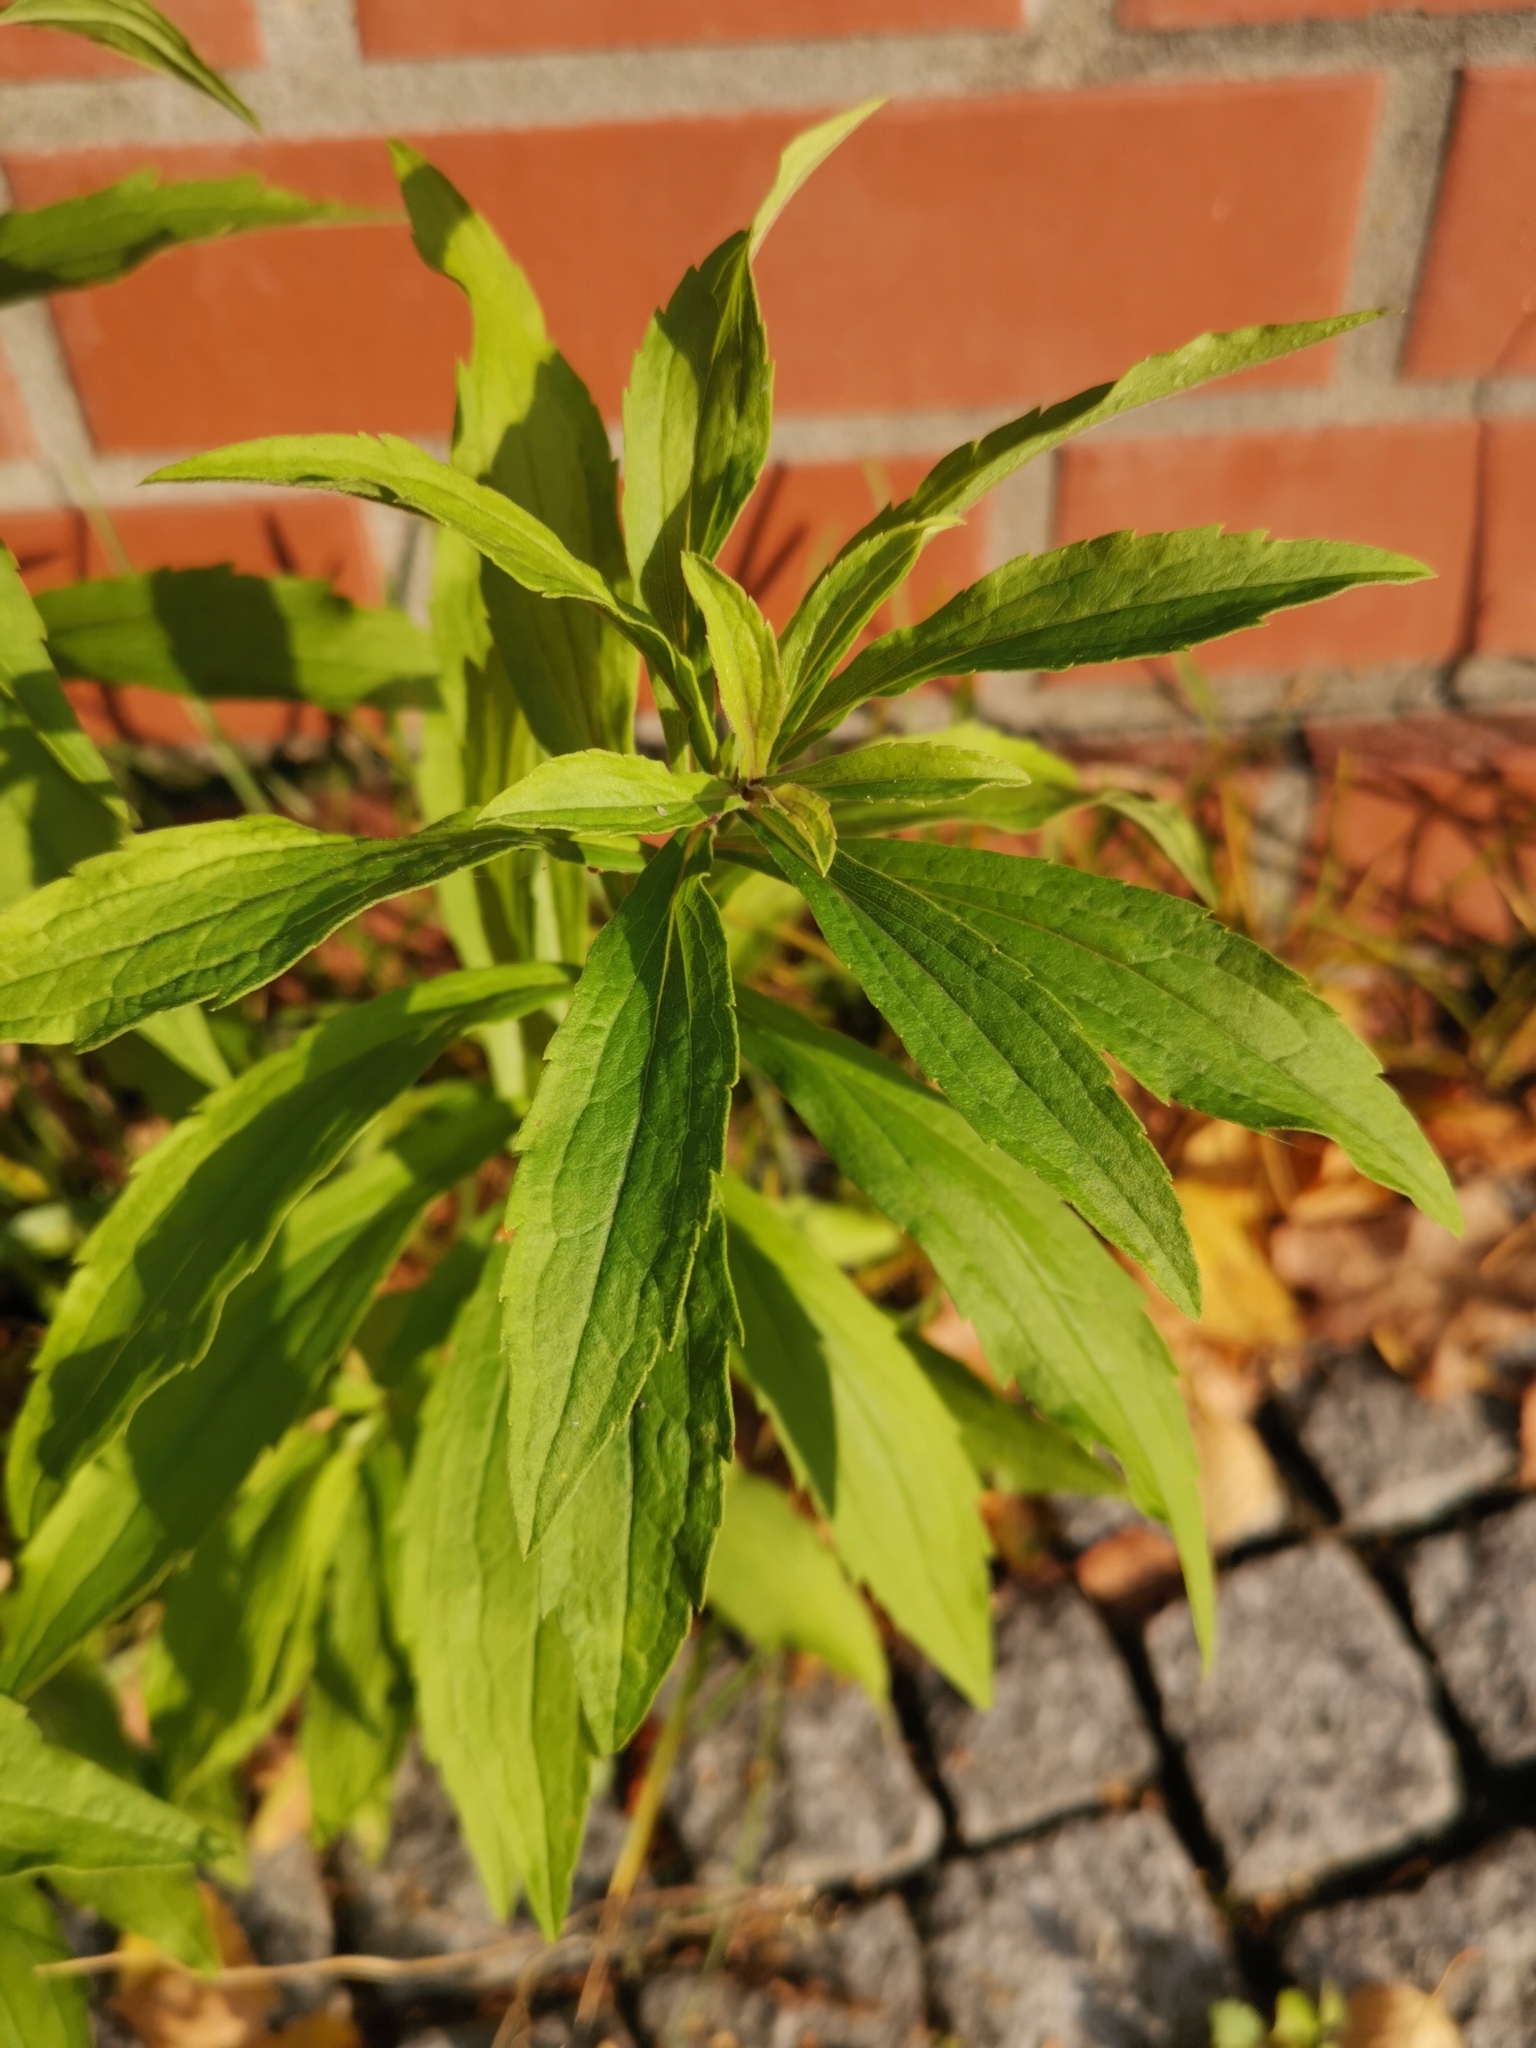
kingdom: Plantae
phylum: Tracheophyta
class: Magnoliopsida
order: Asterales
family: Asteraceae
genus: Solidago
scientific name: Solidago canadensis
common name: Canada goldenrod
